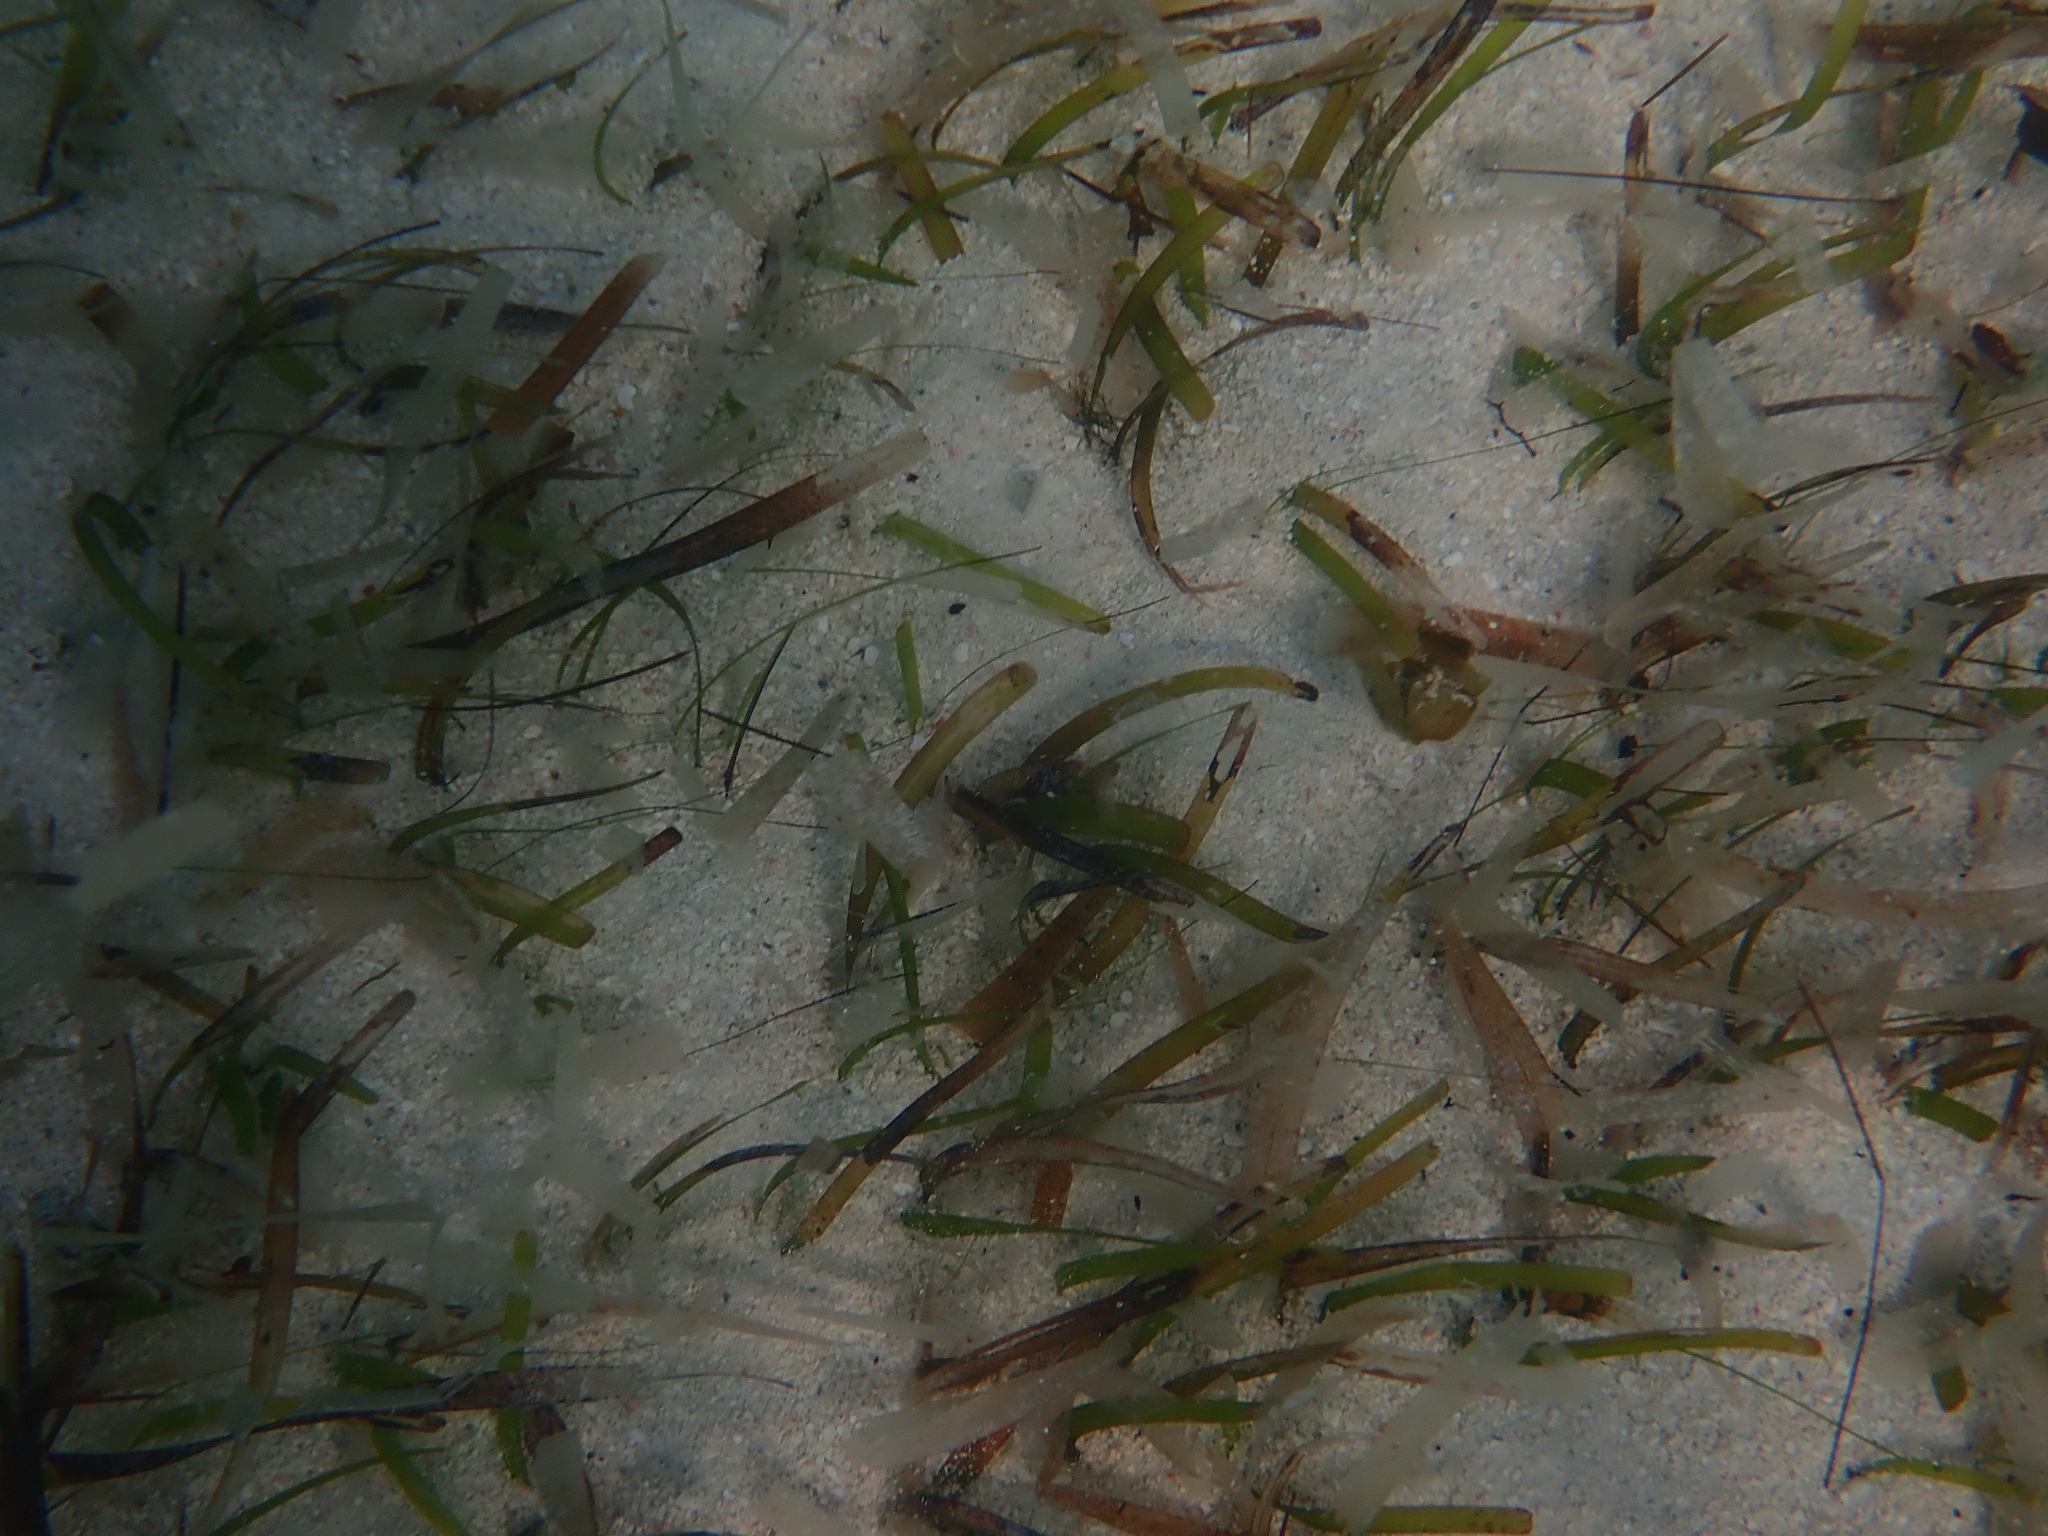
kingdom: Plantae
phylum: Tracheophyta
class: Liliopsida
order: Alismatales
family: Hydrocharitaceae
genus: Thalassia
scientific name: Thalassia testudinum
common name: Species code: tt
